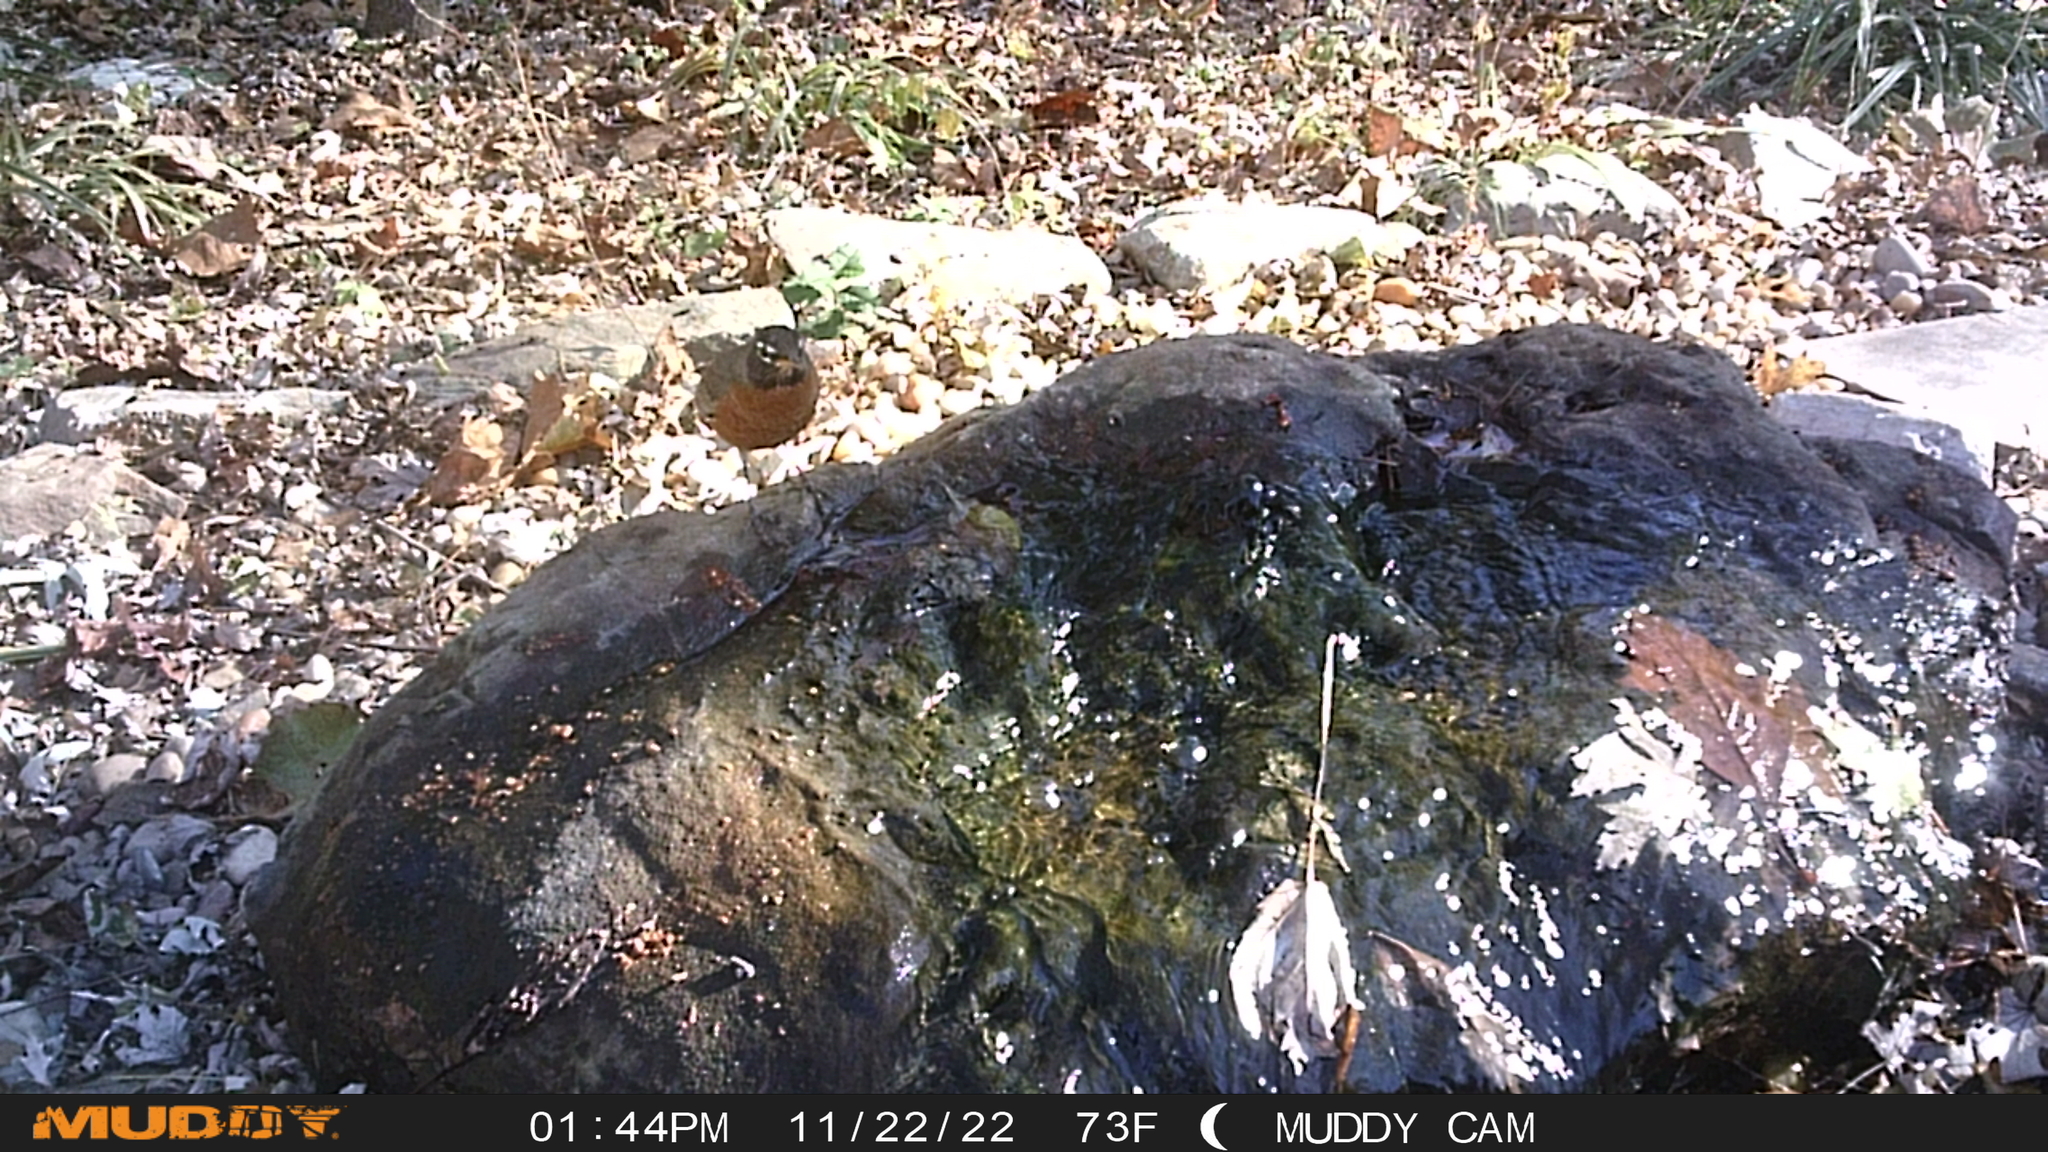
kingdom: Animalia
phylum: Chordata
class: Aves
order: Passeriformes
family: Turdidae
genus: Turdus
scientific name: Turdus migratorius
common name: American robin
